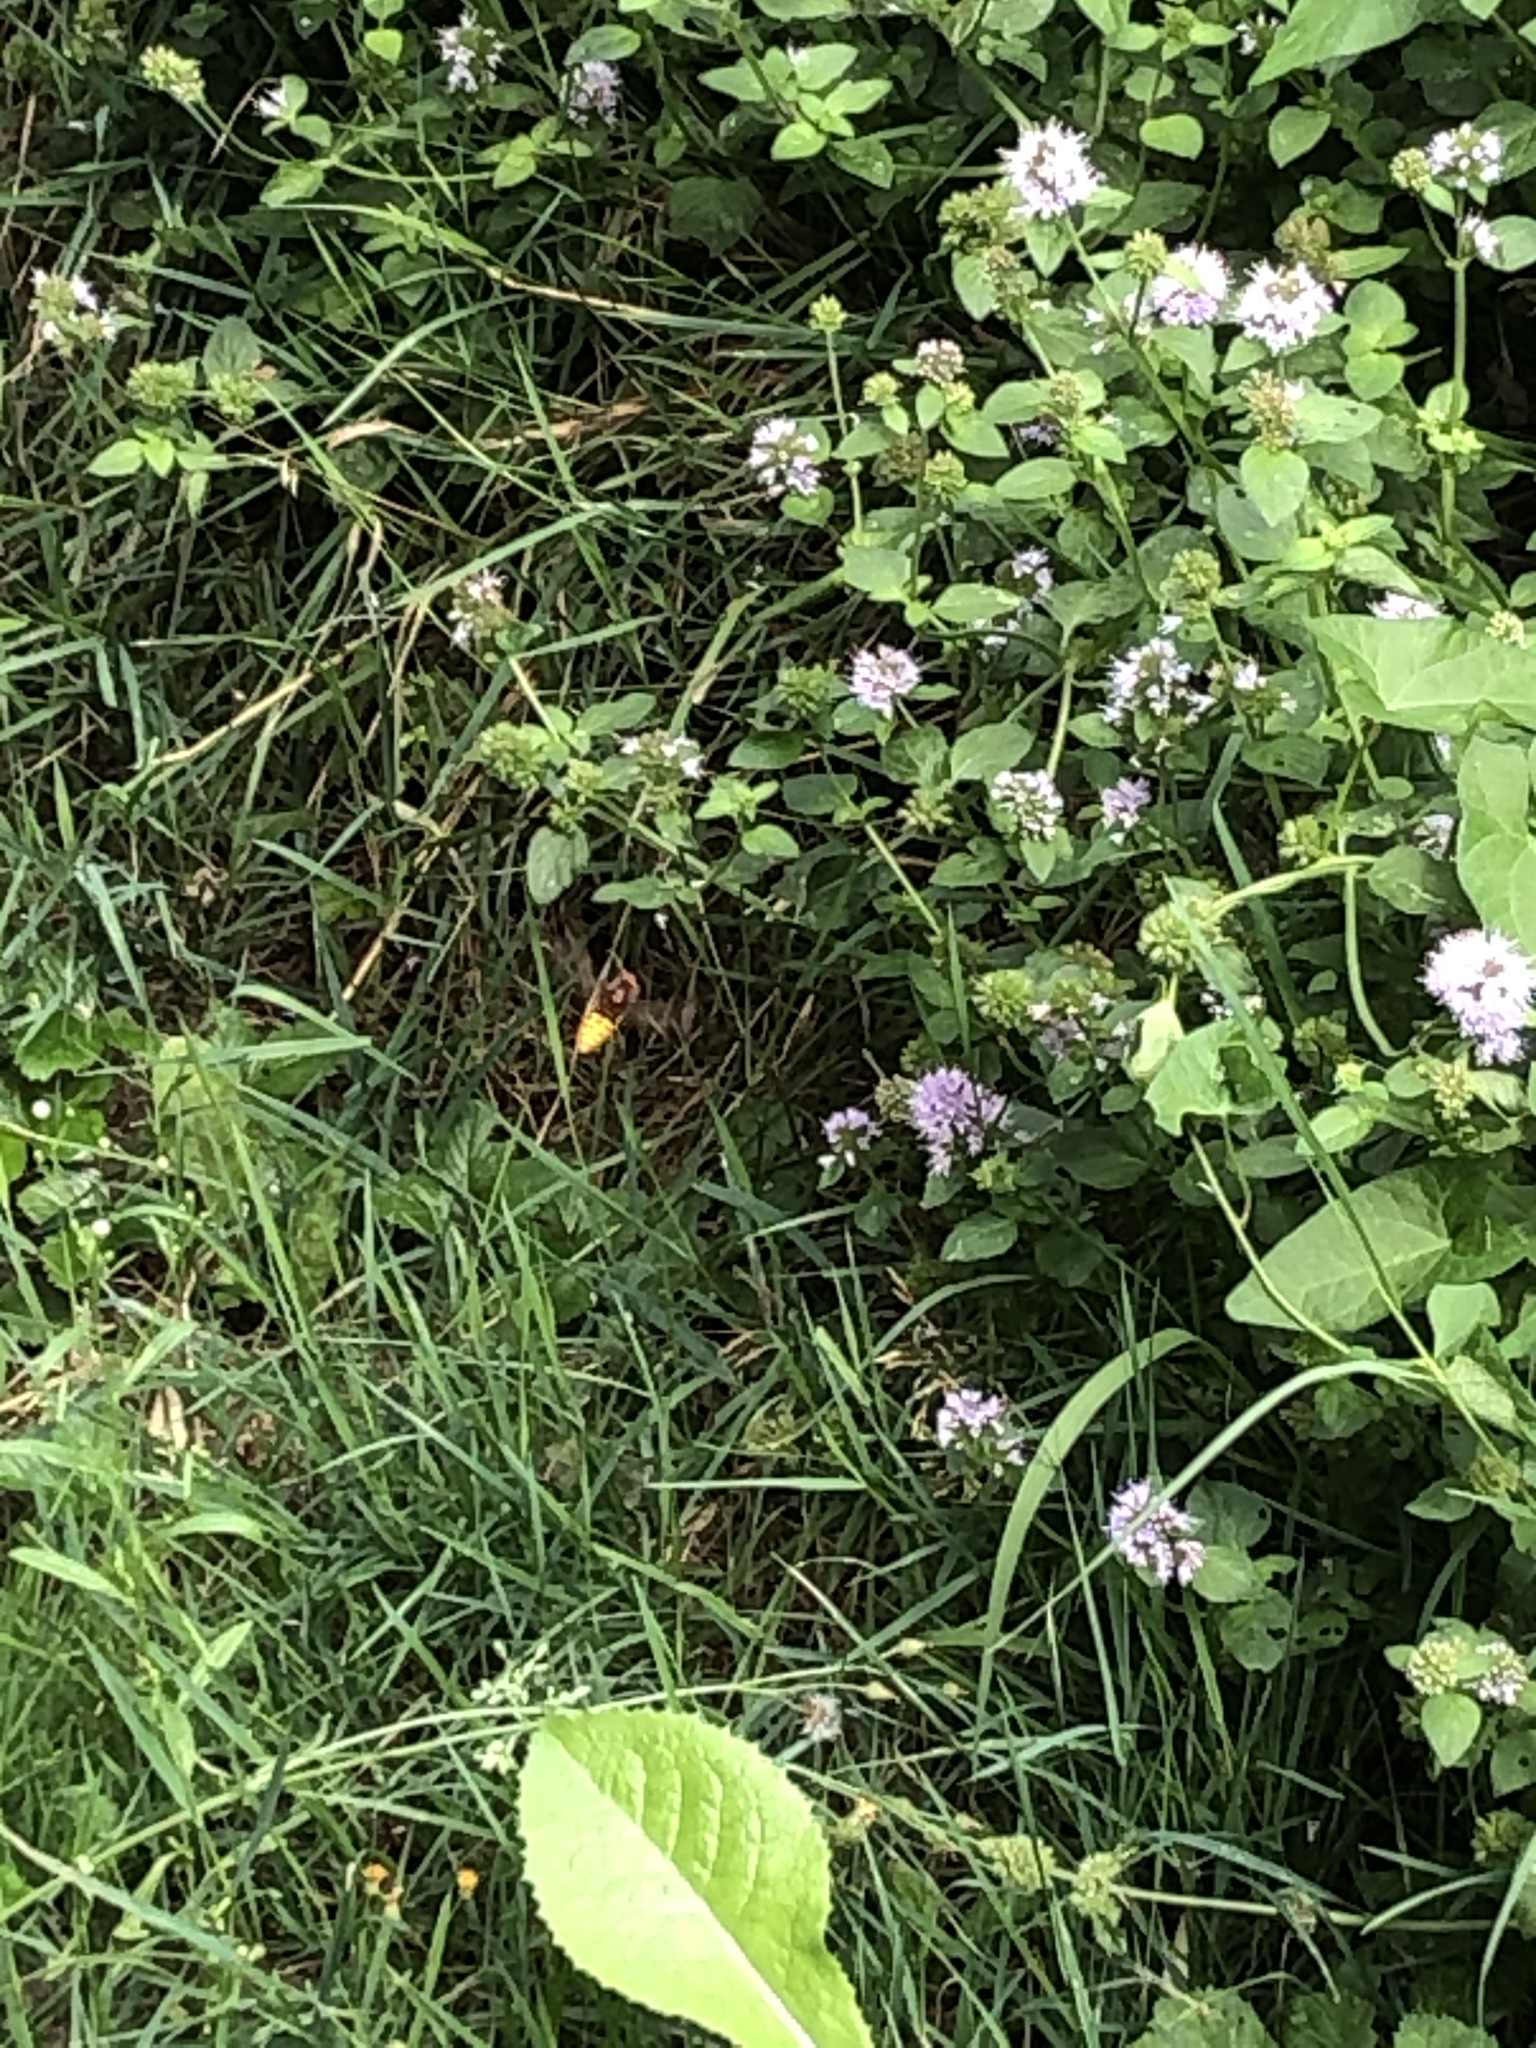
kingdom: Animalia
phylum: Arthropoda
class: Insecta
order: Hymenoptera
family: Vespidae
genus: Vespa
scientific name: Vespa crabro
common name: Hornet
